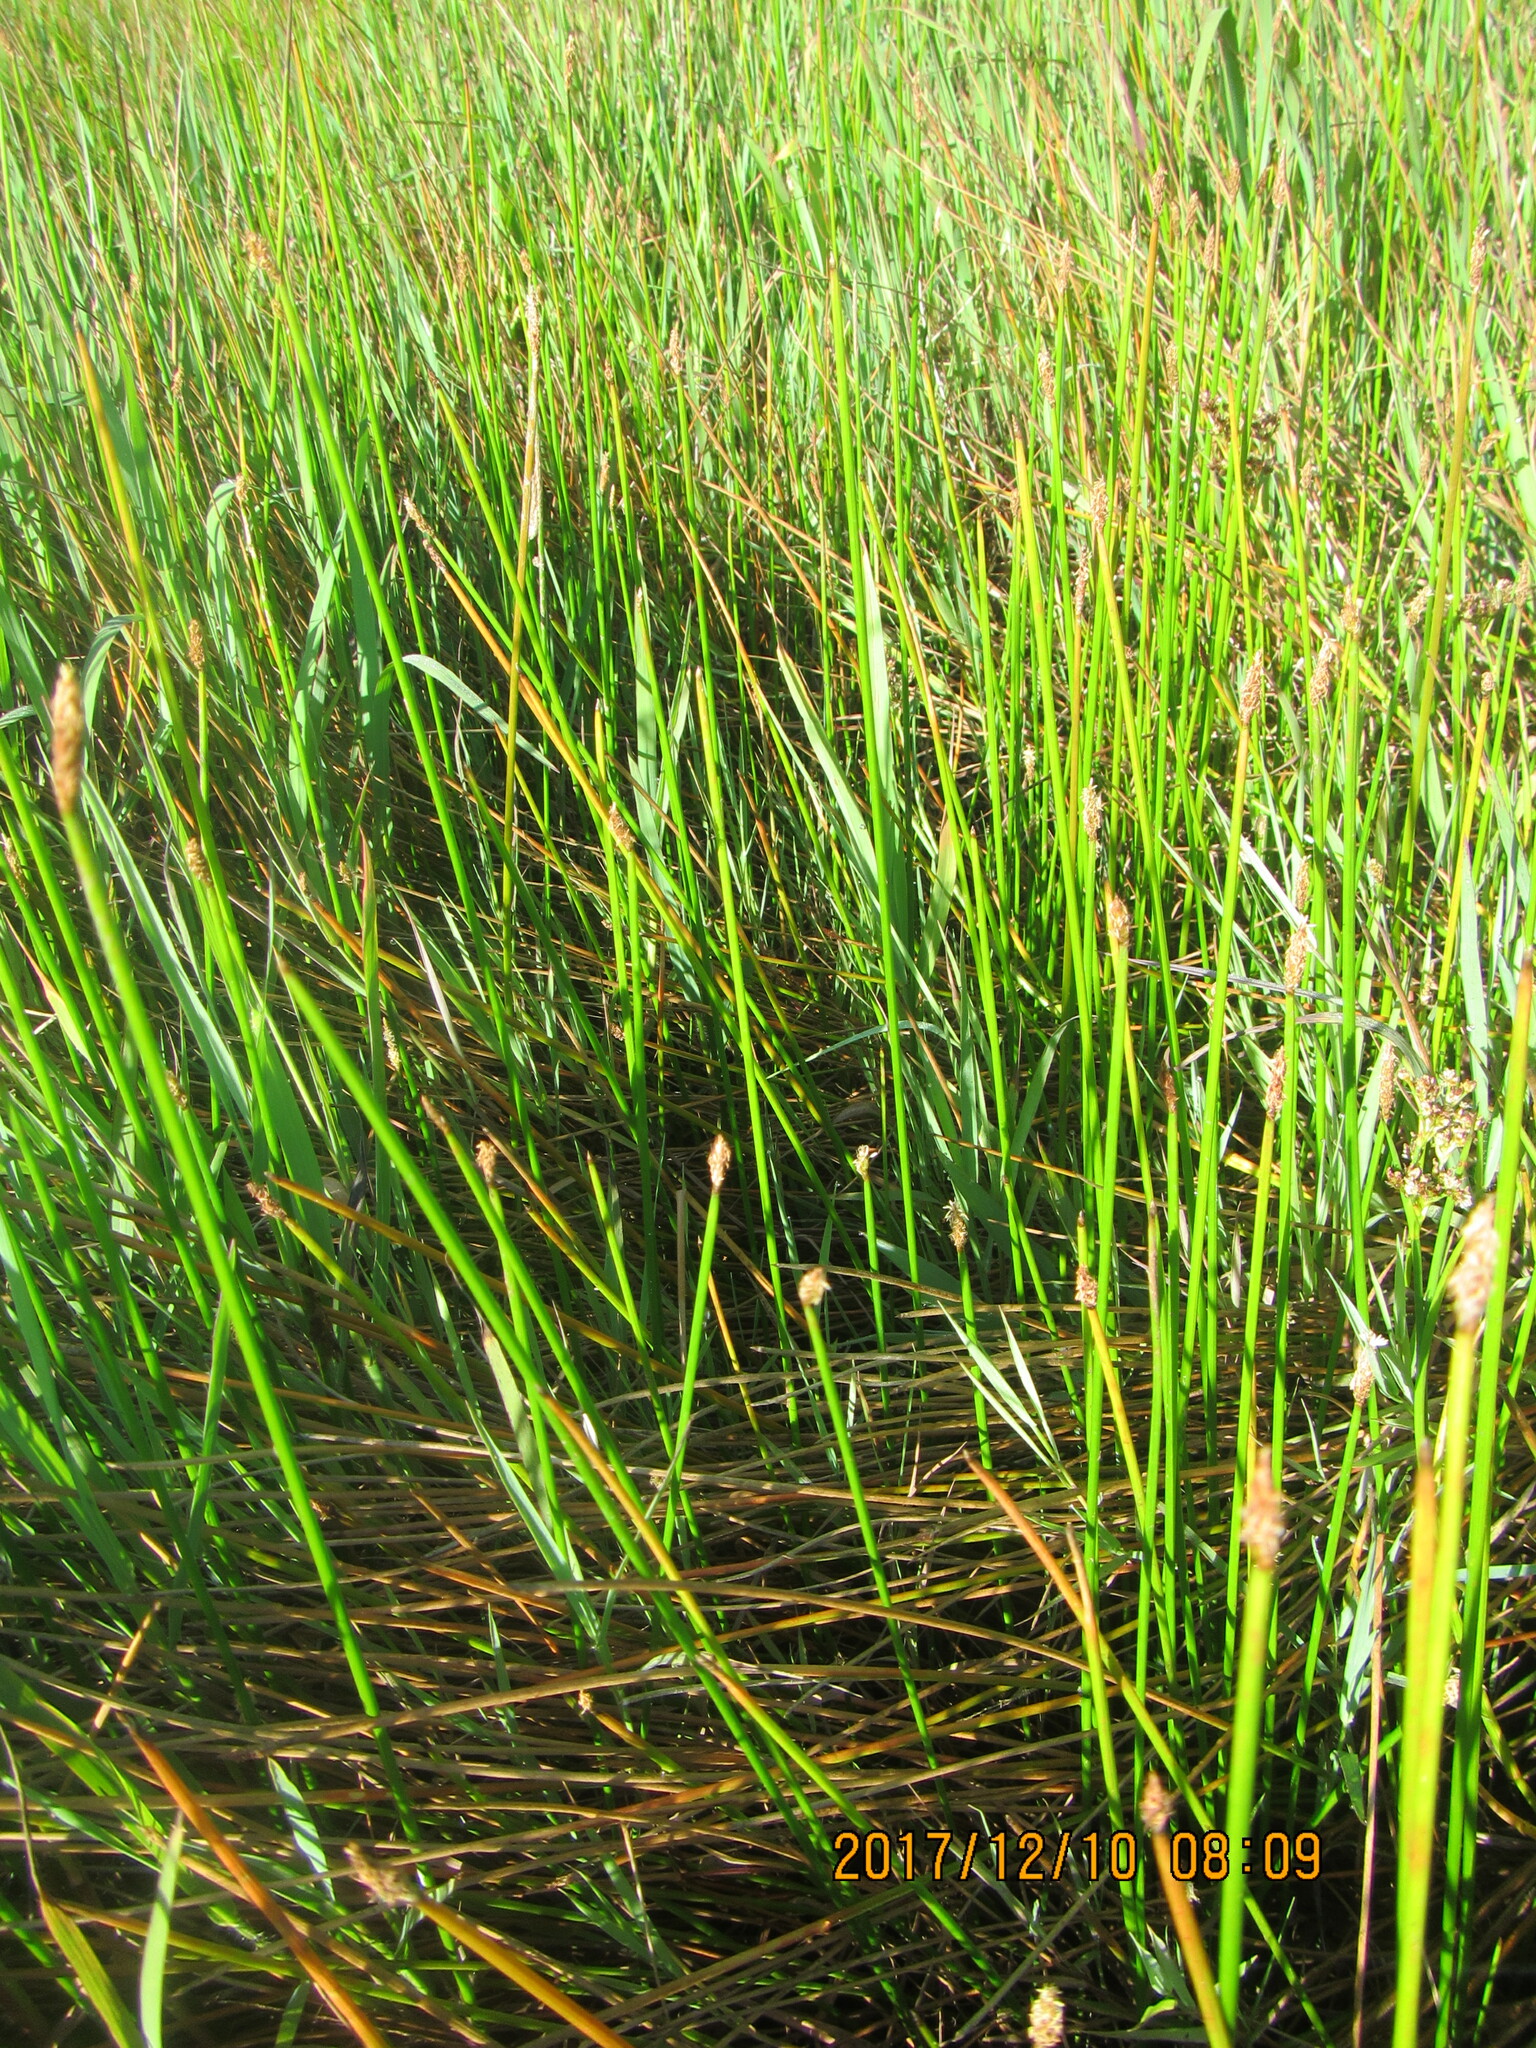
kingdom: Plantae
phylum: Tracheophyta
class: Liliopsida
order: Poales
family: Cyperaceae
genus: Eleocharis
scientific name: Eleocharis acuta
